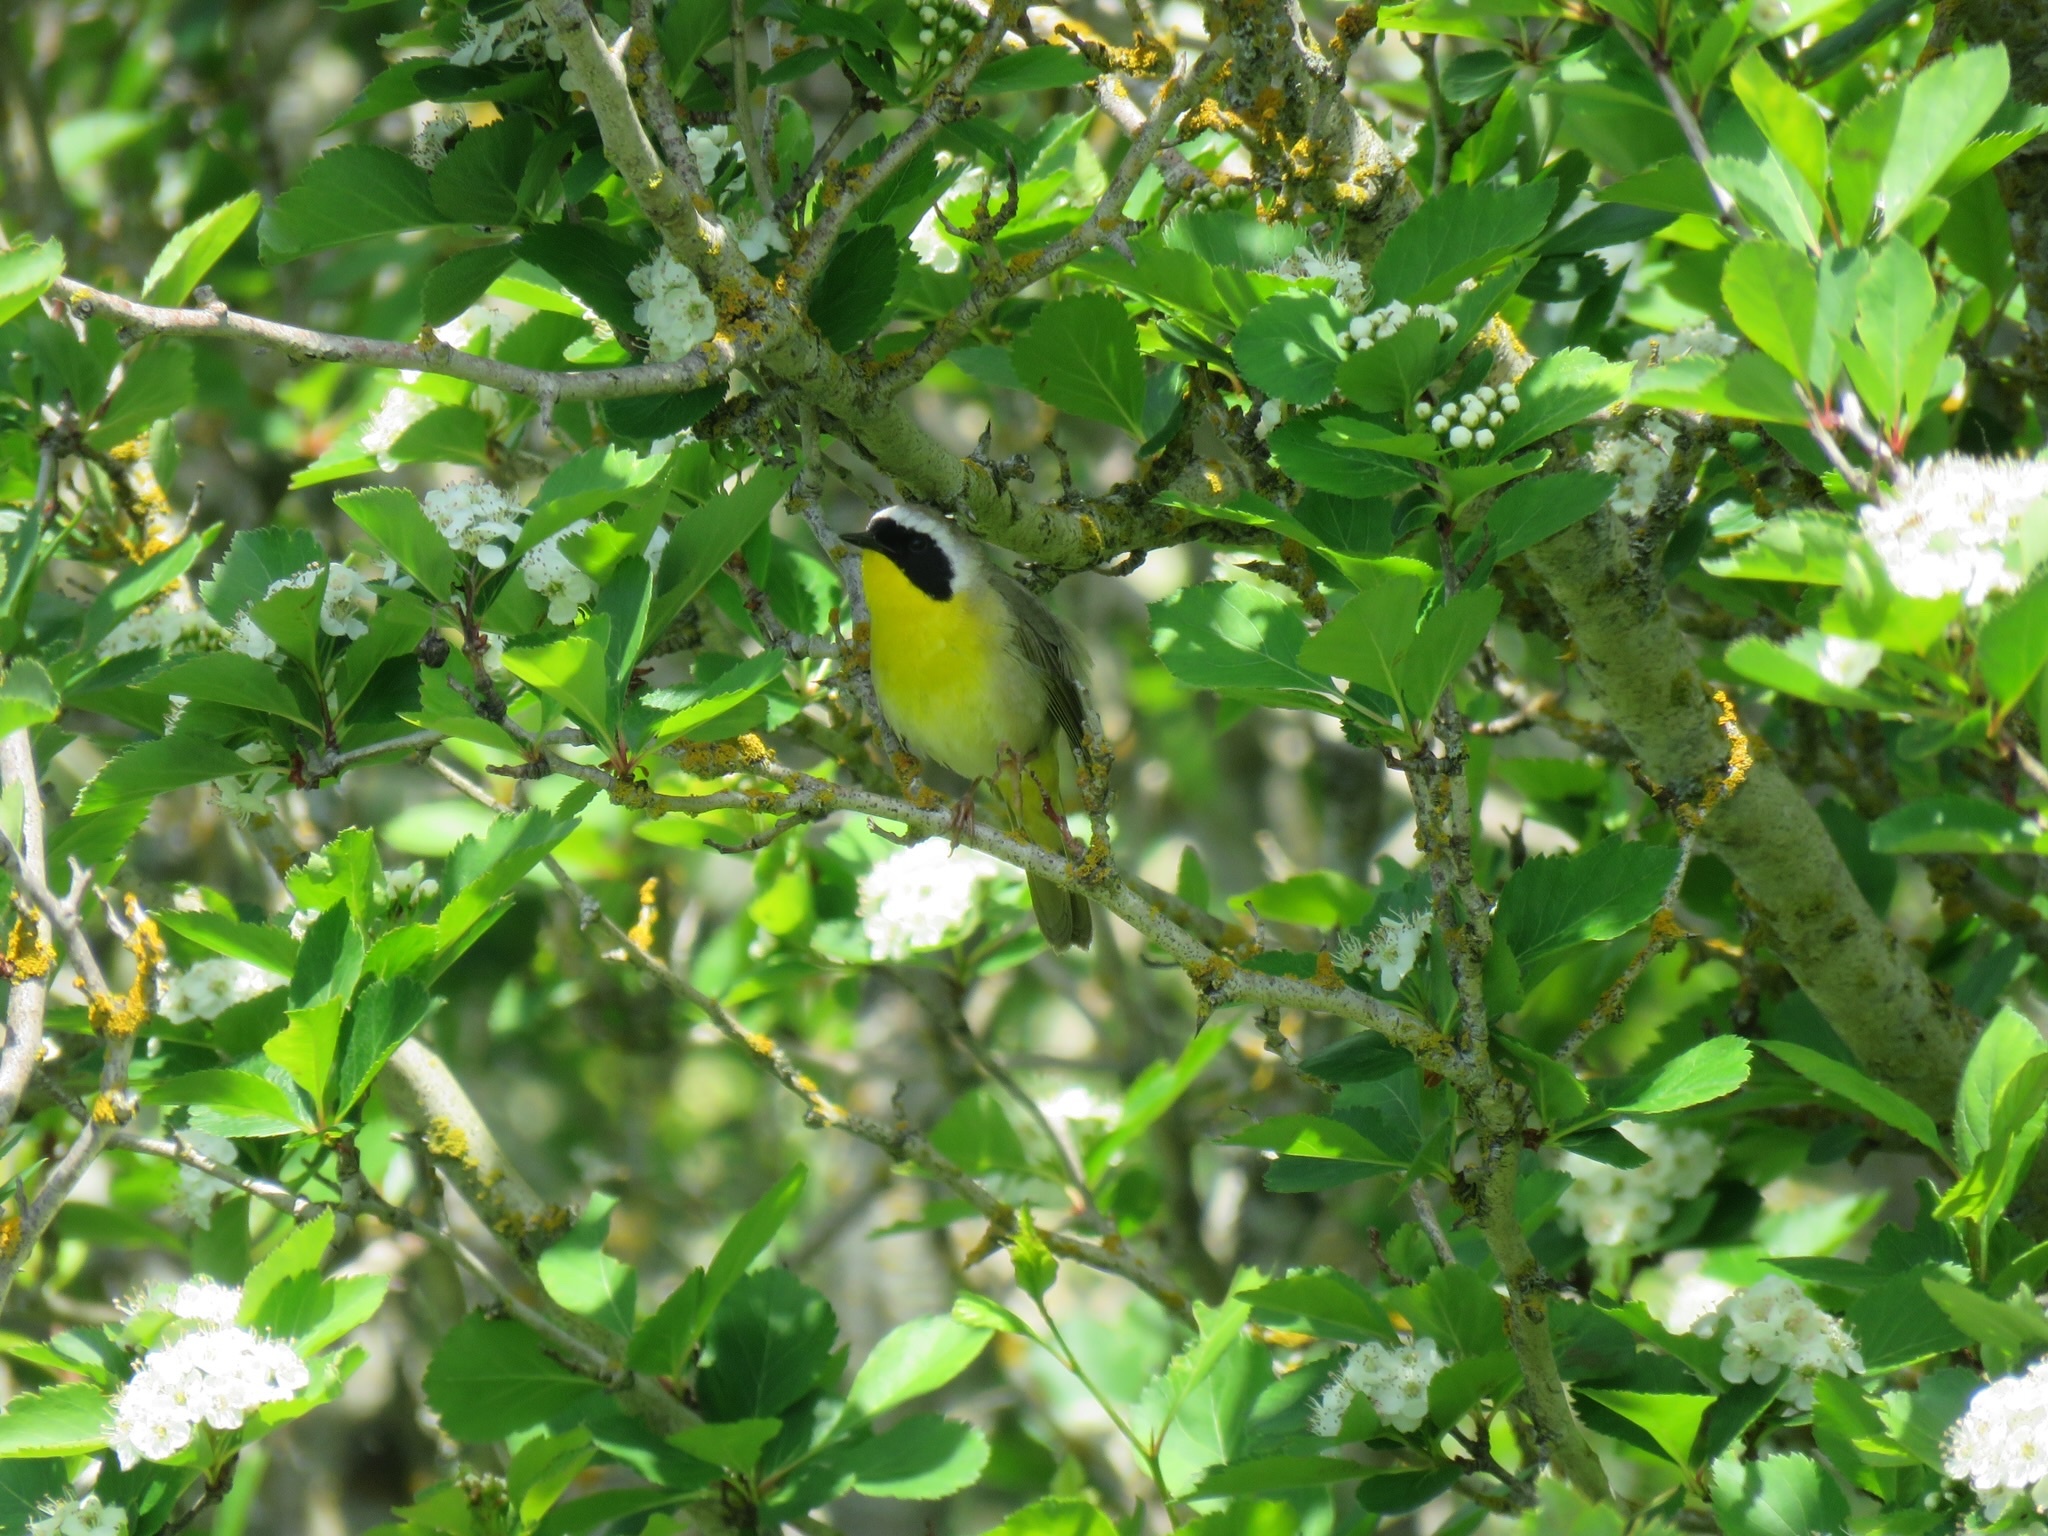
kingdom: Animalia
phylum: Chordata
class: Aves
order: Passeriformes
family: Parulidae
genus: Geothlypis
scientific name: Geothlypis trichas
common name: Common yellowthroat
